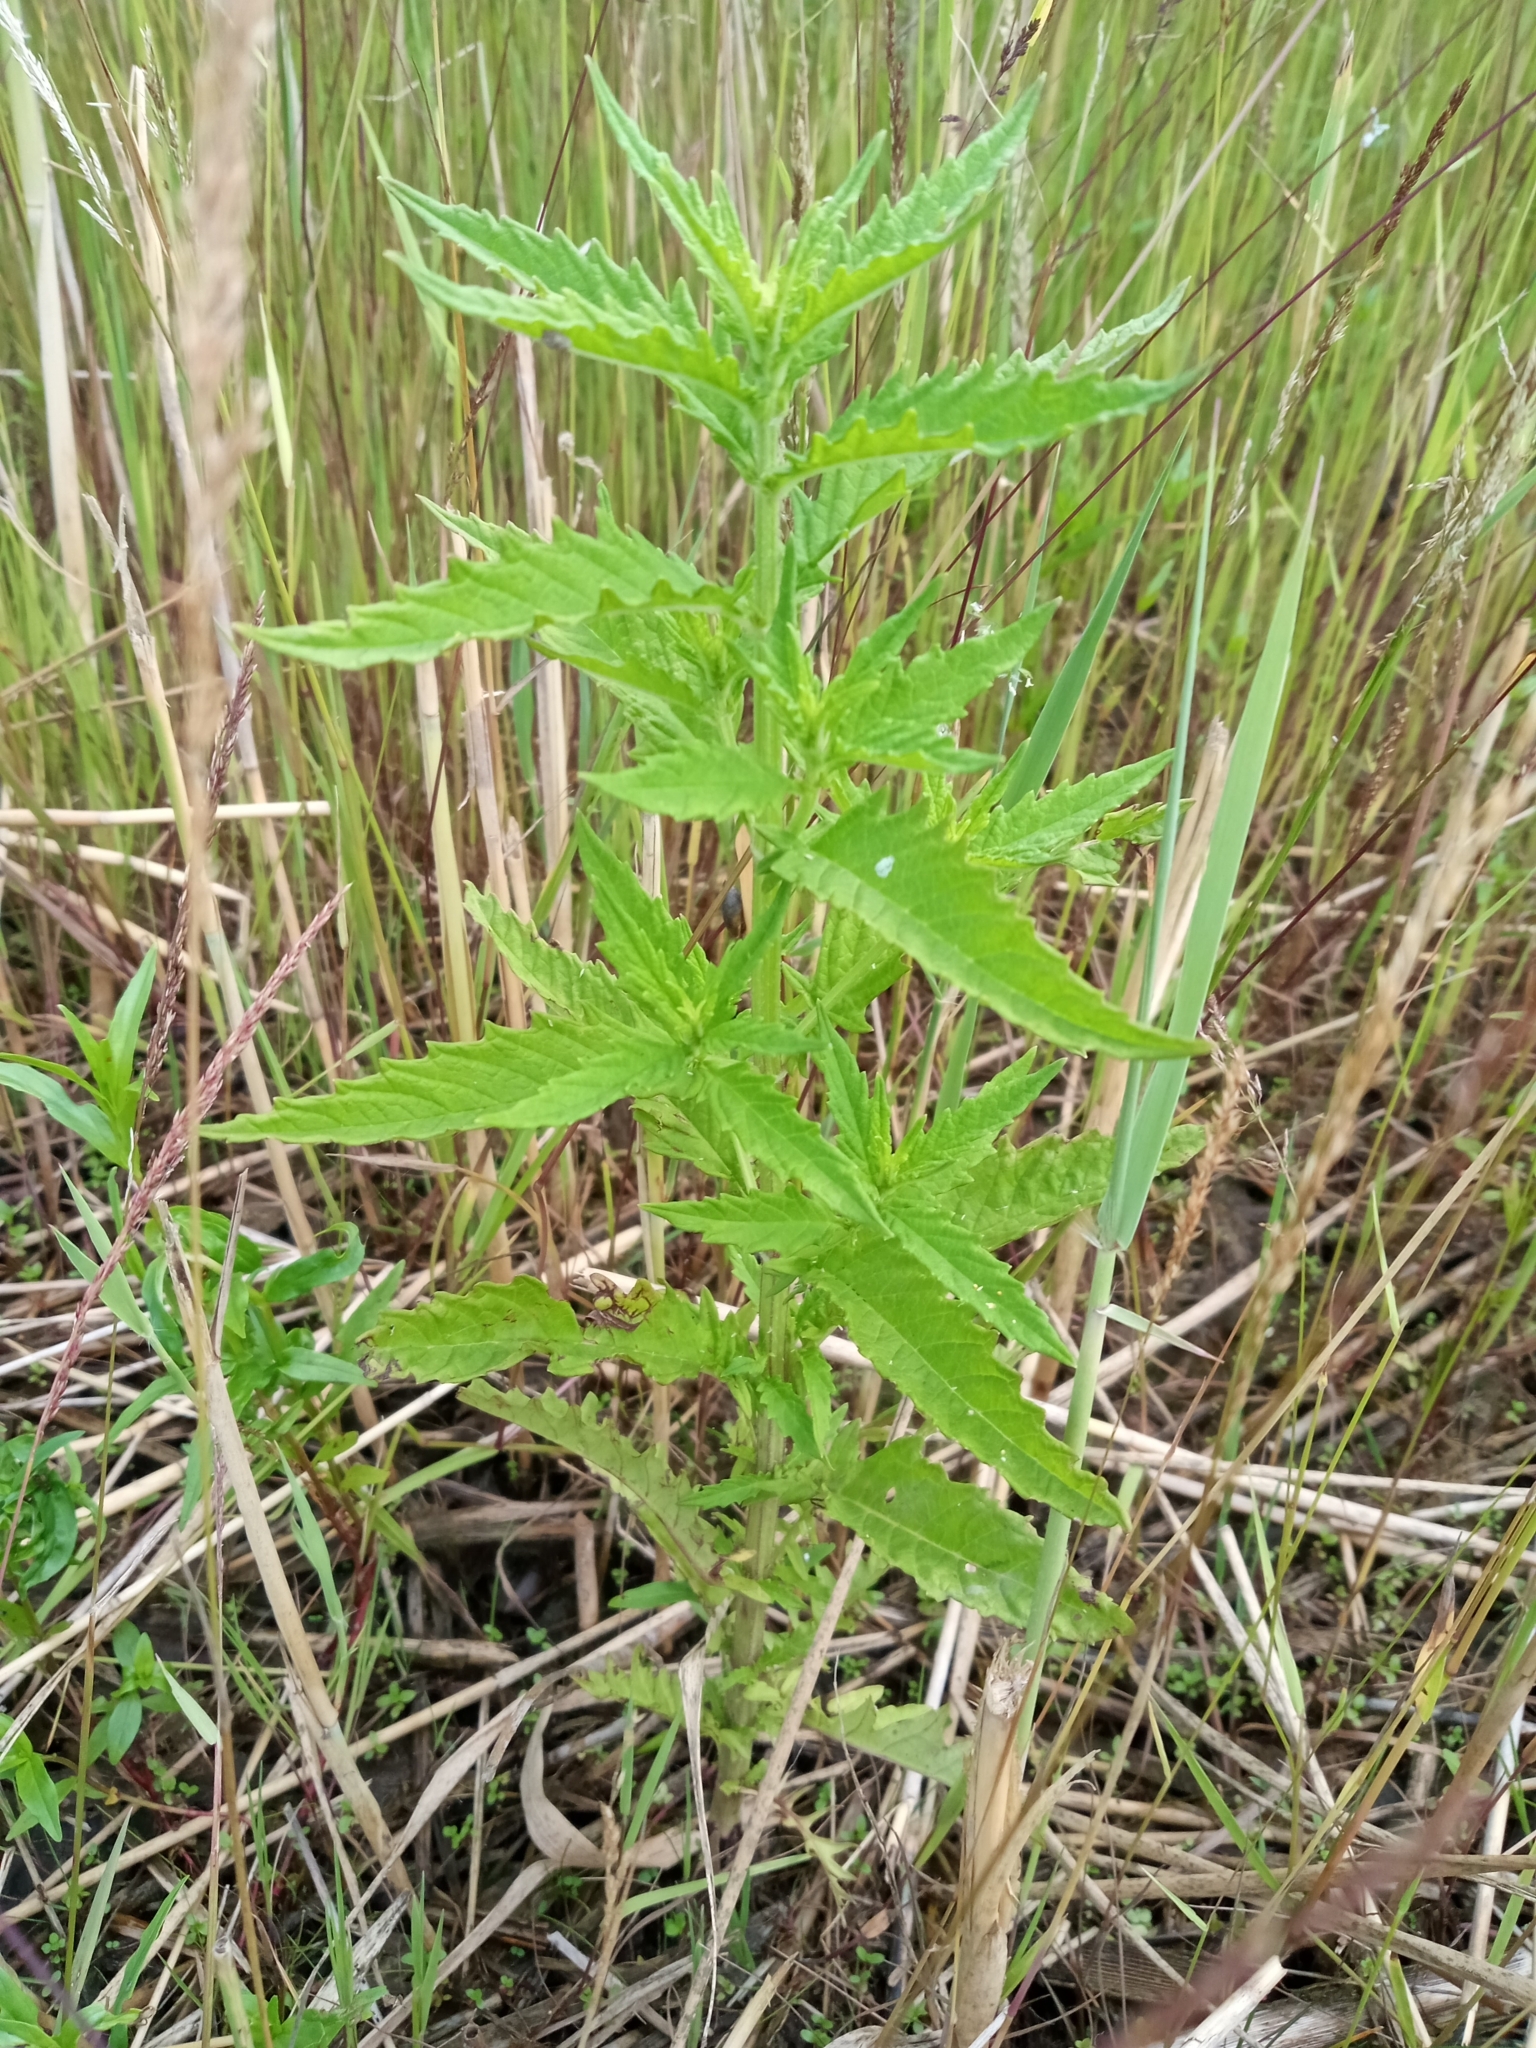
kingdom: Plantae
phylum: Tracheophyta
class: Magnoliopsida
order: Lamiales
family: Lamiaceae
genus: Lycopus
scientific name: Lycopus europaeus
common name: European bugleweed
